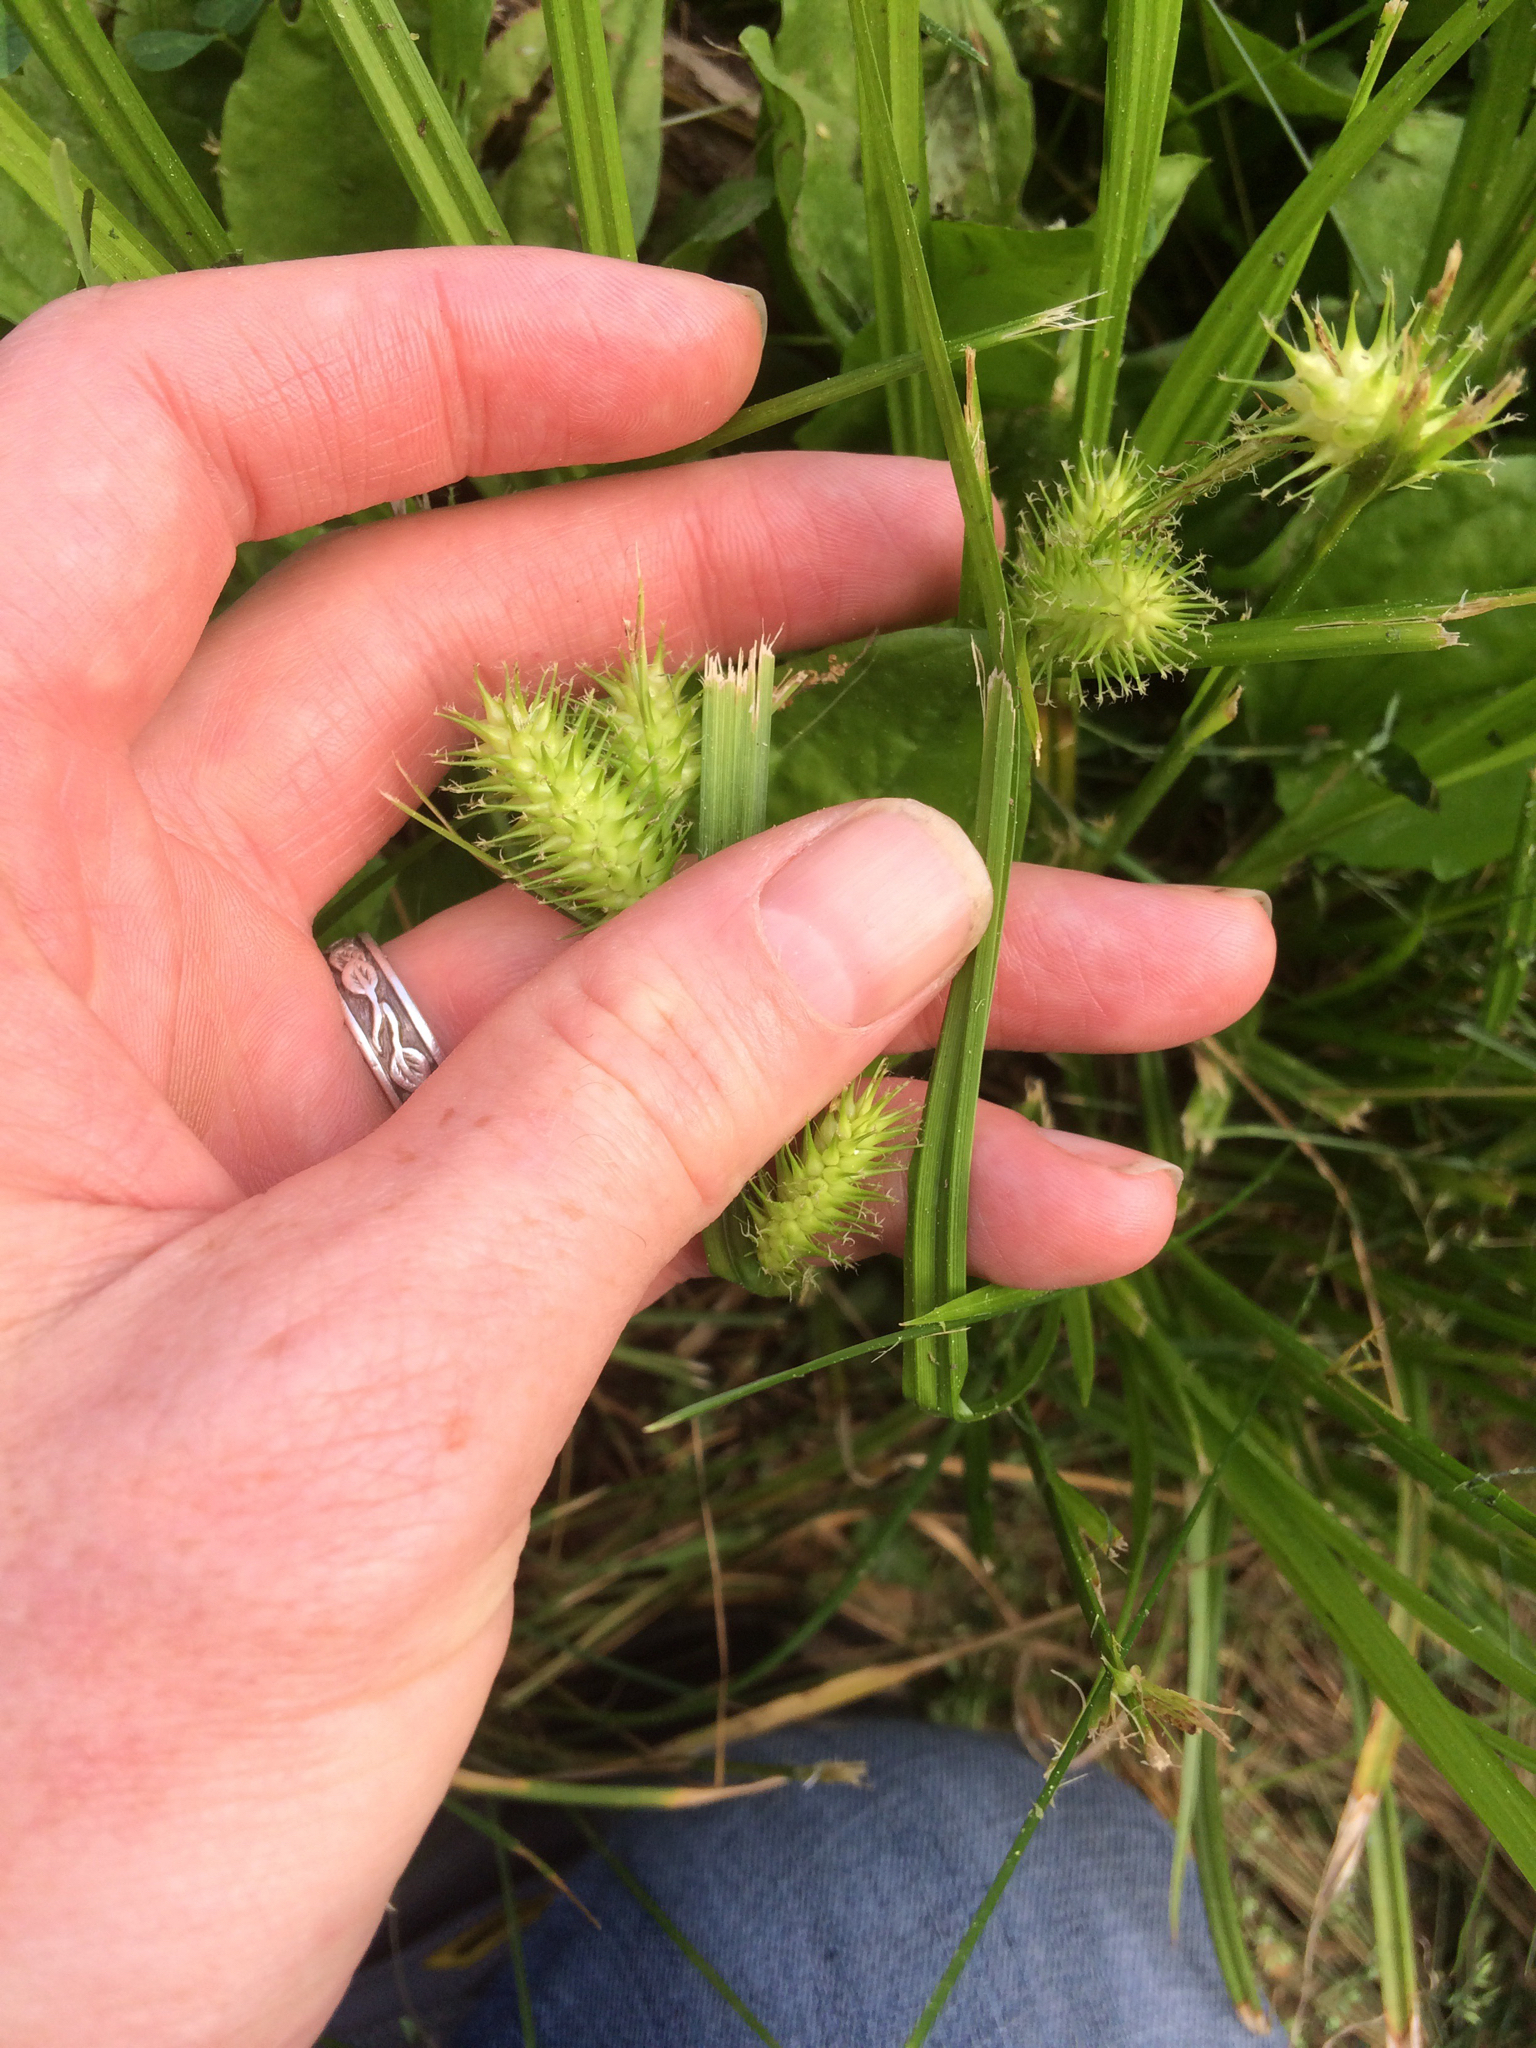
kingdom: Plantae
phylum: Tracheophyta
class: Liliopsida
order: Poales
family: Cyperaceae
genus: Carex
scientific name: Carex lurida
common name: Sallow sedge
